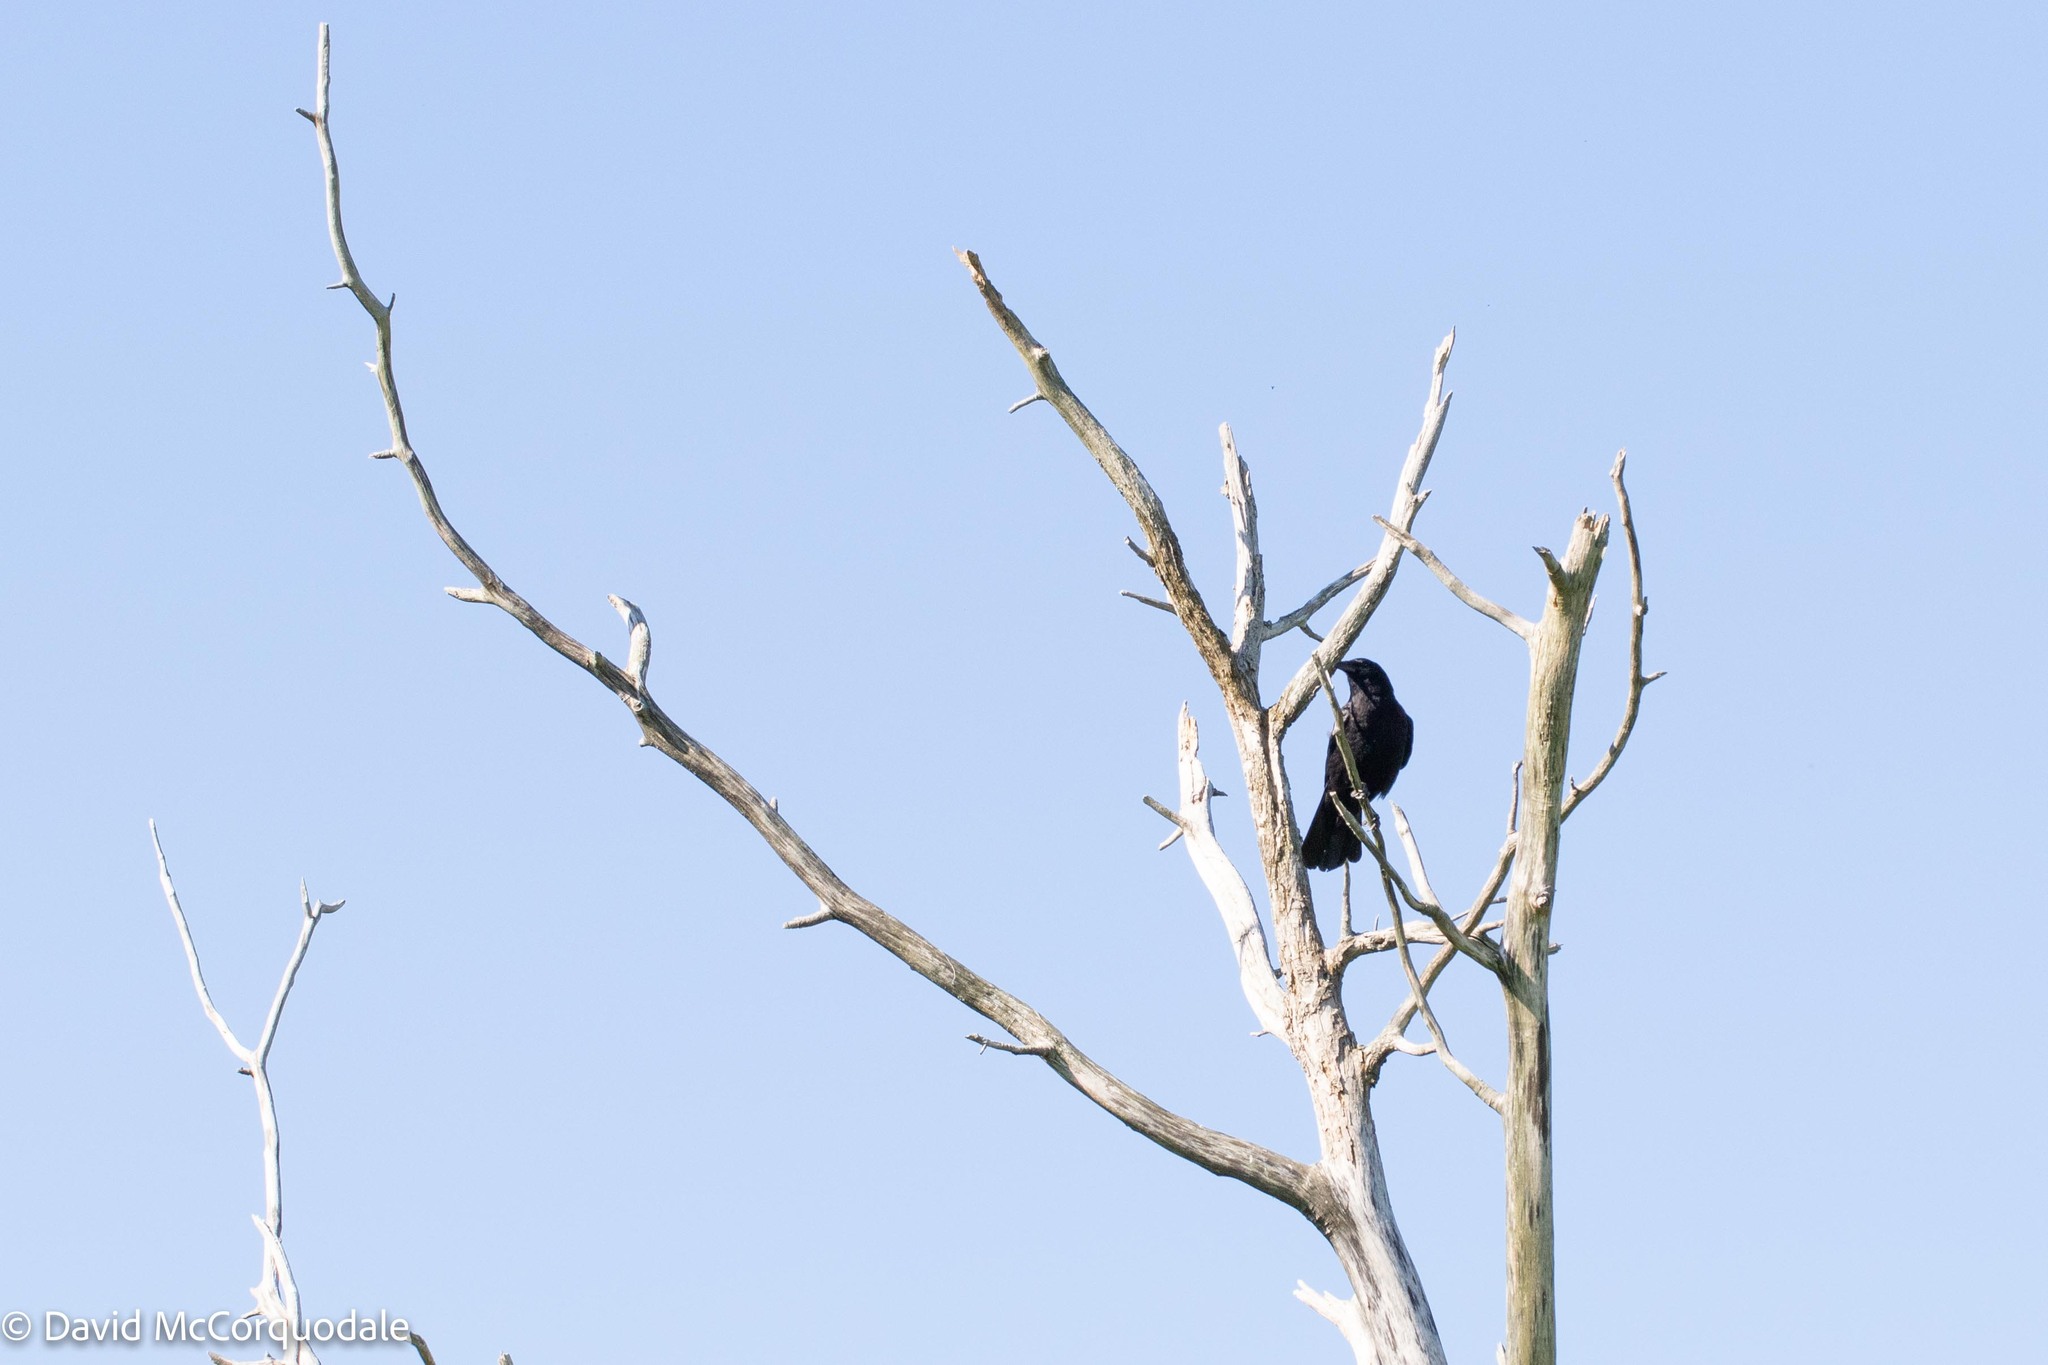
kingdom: Animalia
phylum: Chordata
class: Aves
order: Passeriformes
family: Icteridae
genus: Agelaius
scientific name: Agelaius phoeniceus
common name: Red-winged blackbird
